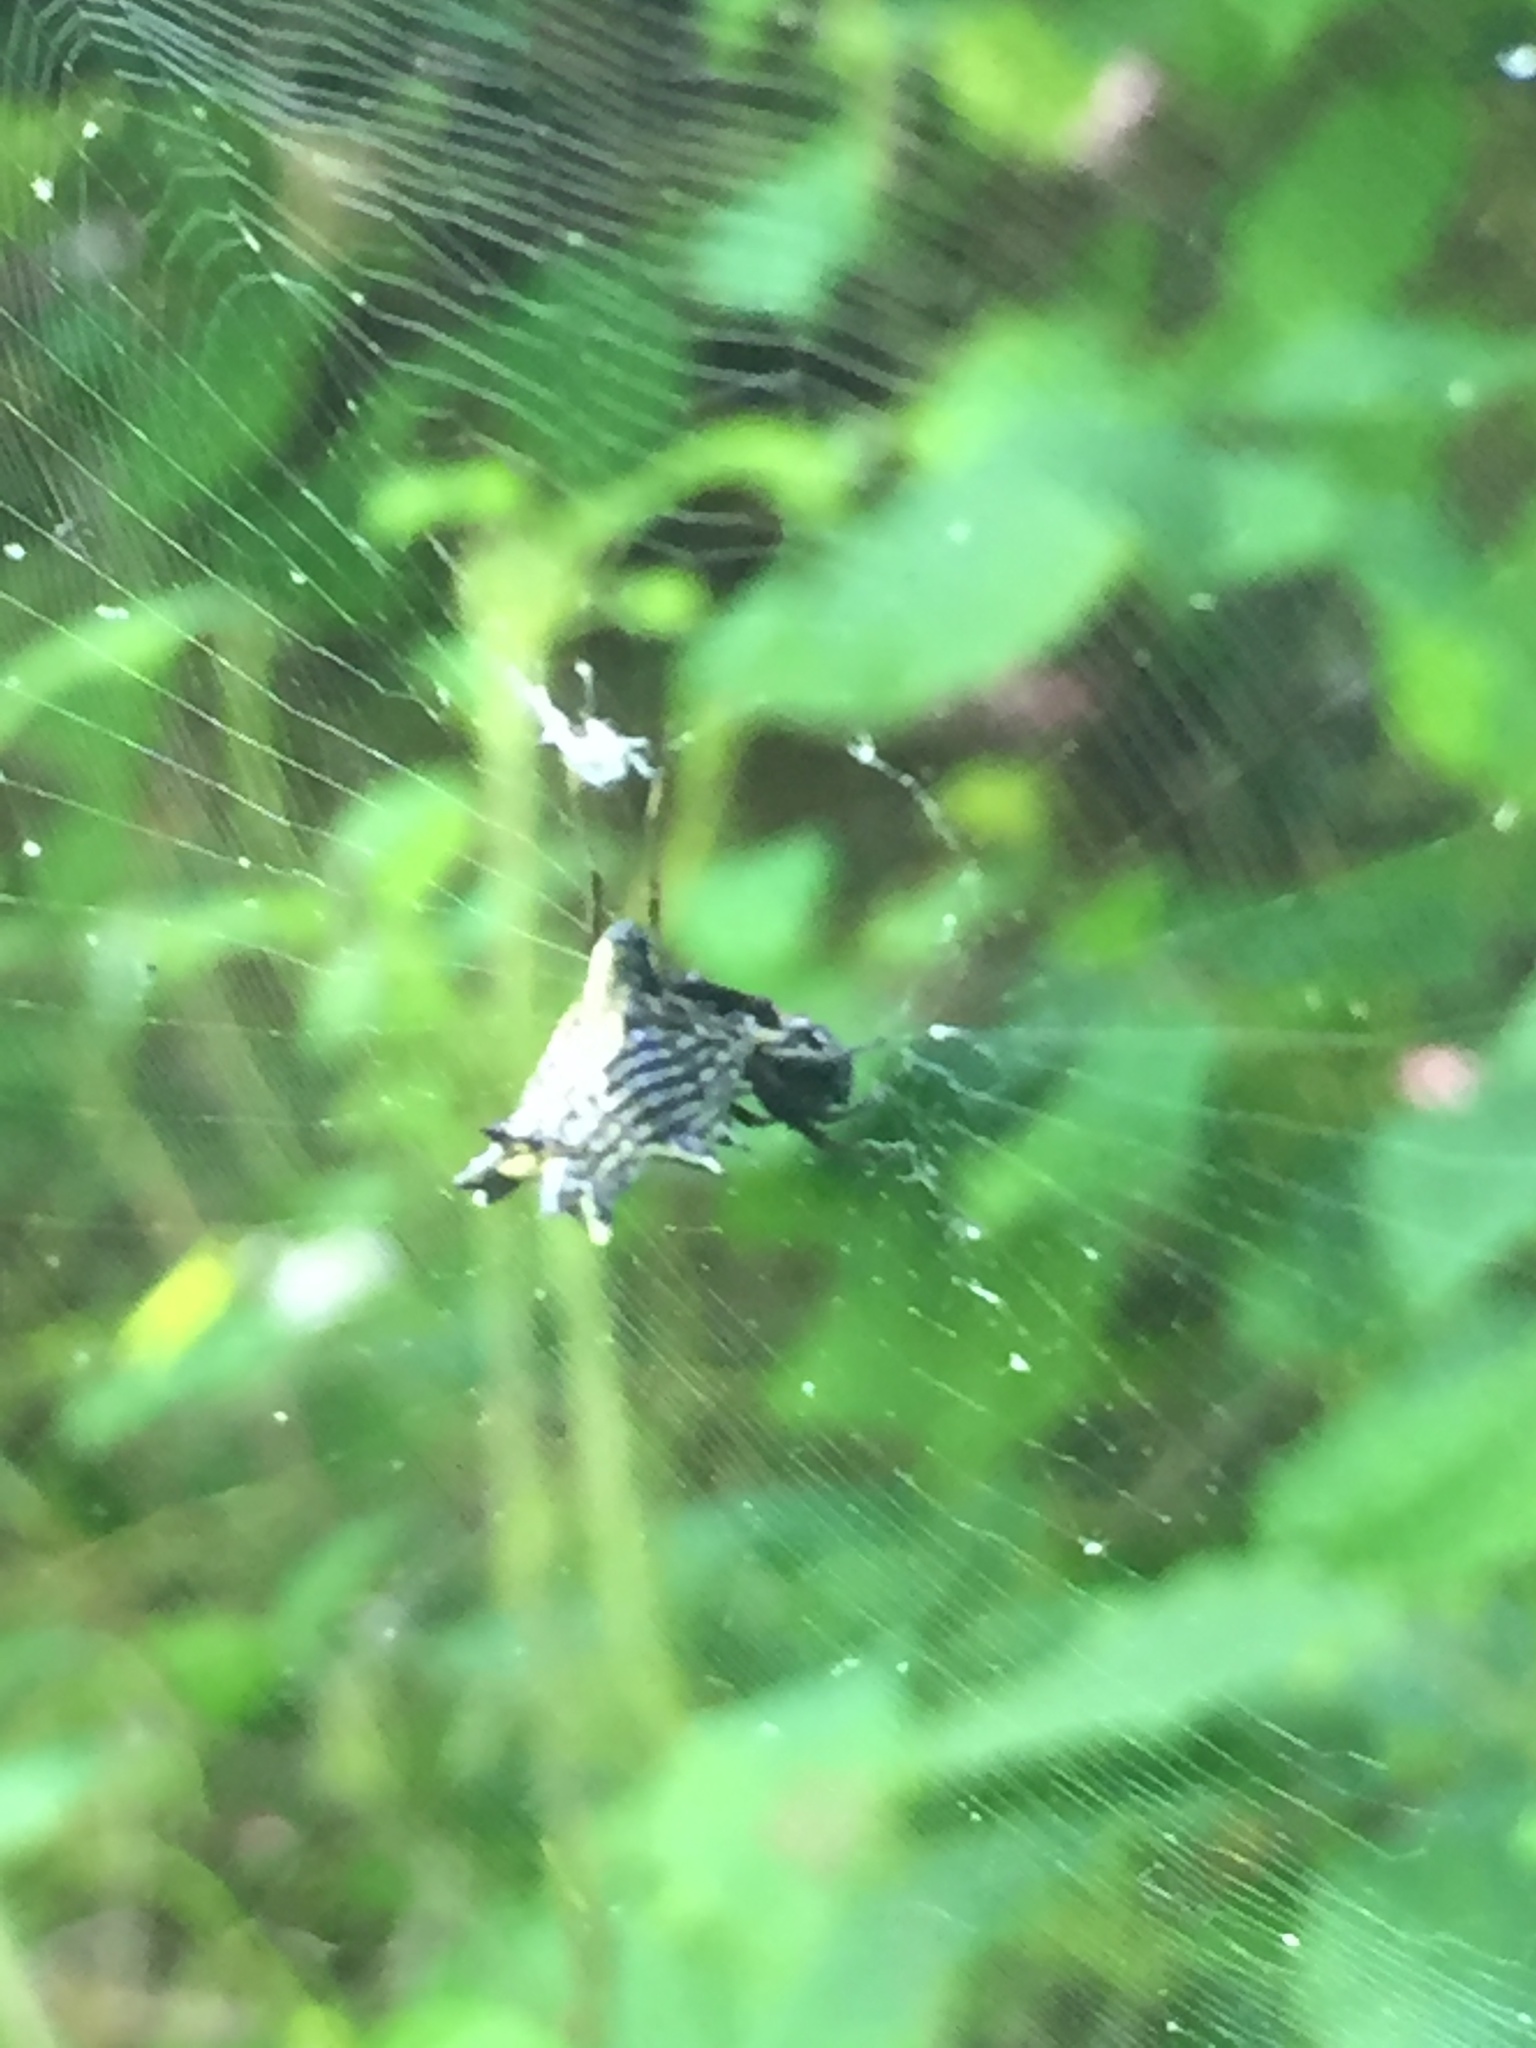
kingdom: Animalia
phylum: Arthropoda
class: Arachnida
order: Araneae
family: Araneidae
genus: Micrathena
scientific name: Micrathena gracilis
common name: Orb weavers
